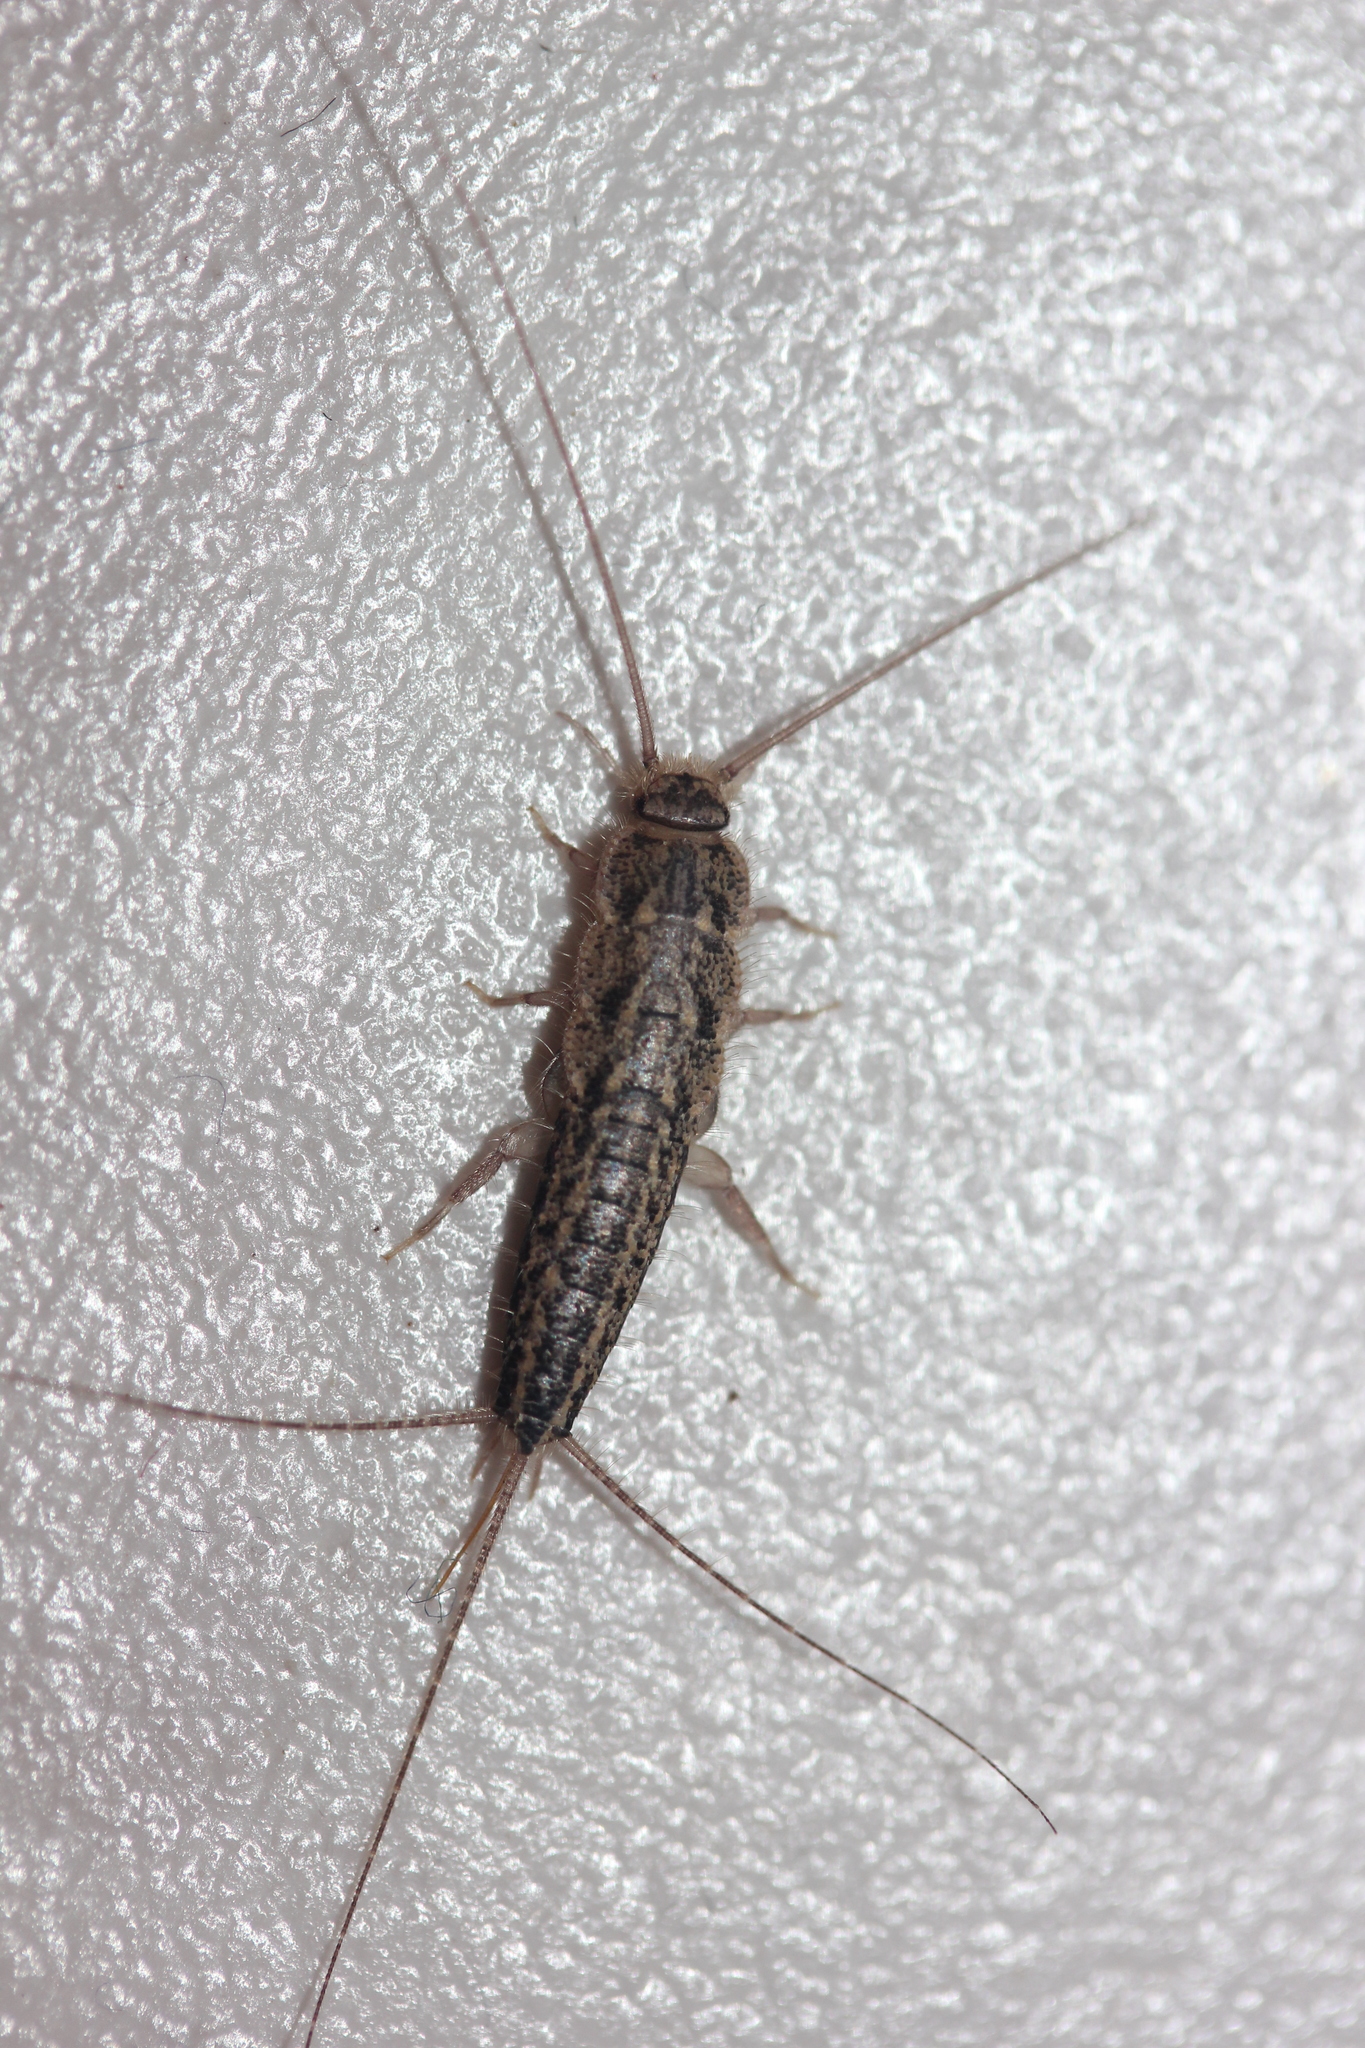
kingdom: Animalia
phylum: Arthropoda
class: Insecta
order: Zygentoma
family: Lepismatidae
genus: Ctenolepisma
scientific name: Ctenolepisma lineata
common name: Four-lined silverfish
